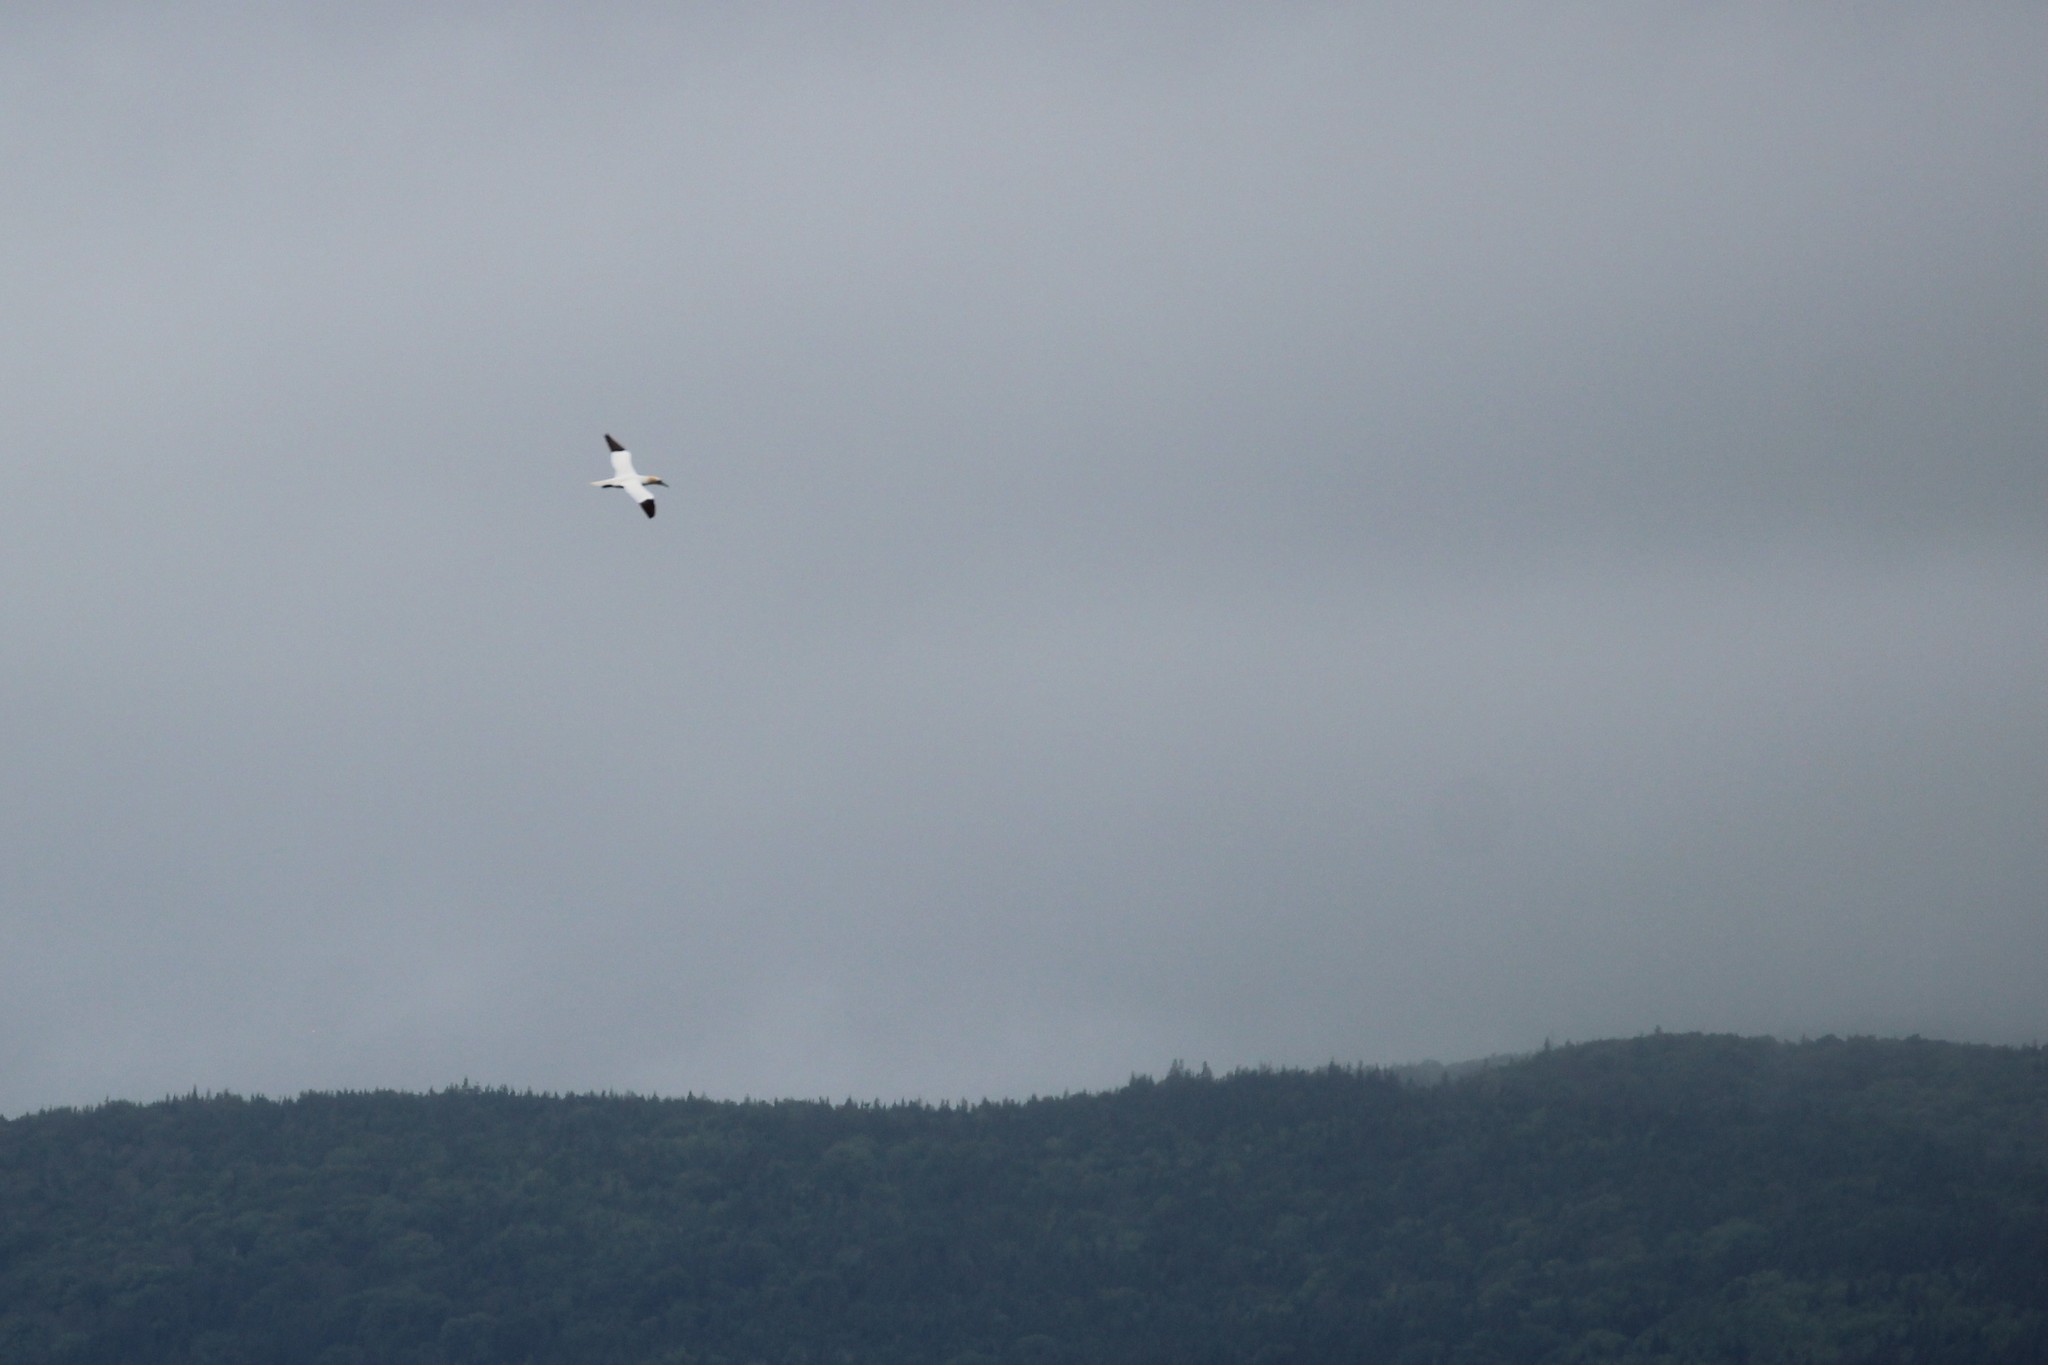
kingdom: Animalia
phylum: Chordata
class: Aves
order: Suliformes
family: Sulidae
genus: Morus
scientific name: Morus bassanus
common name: Northern gannet
